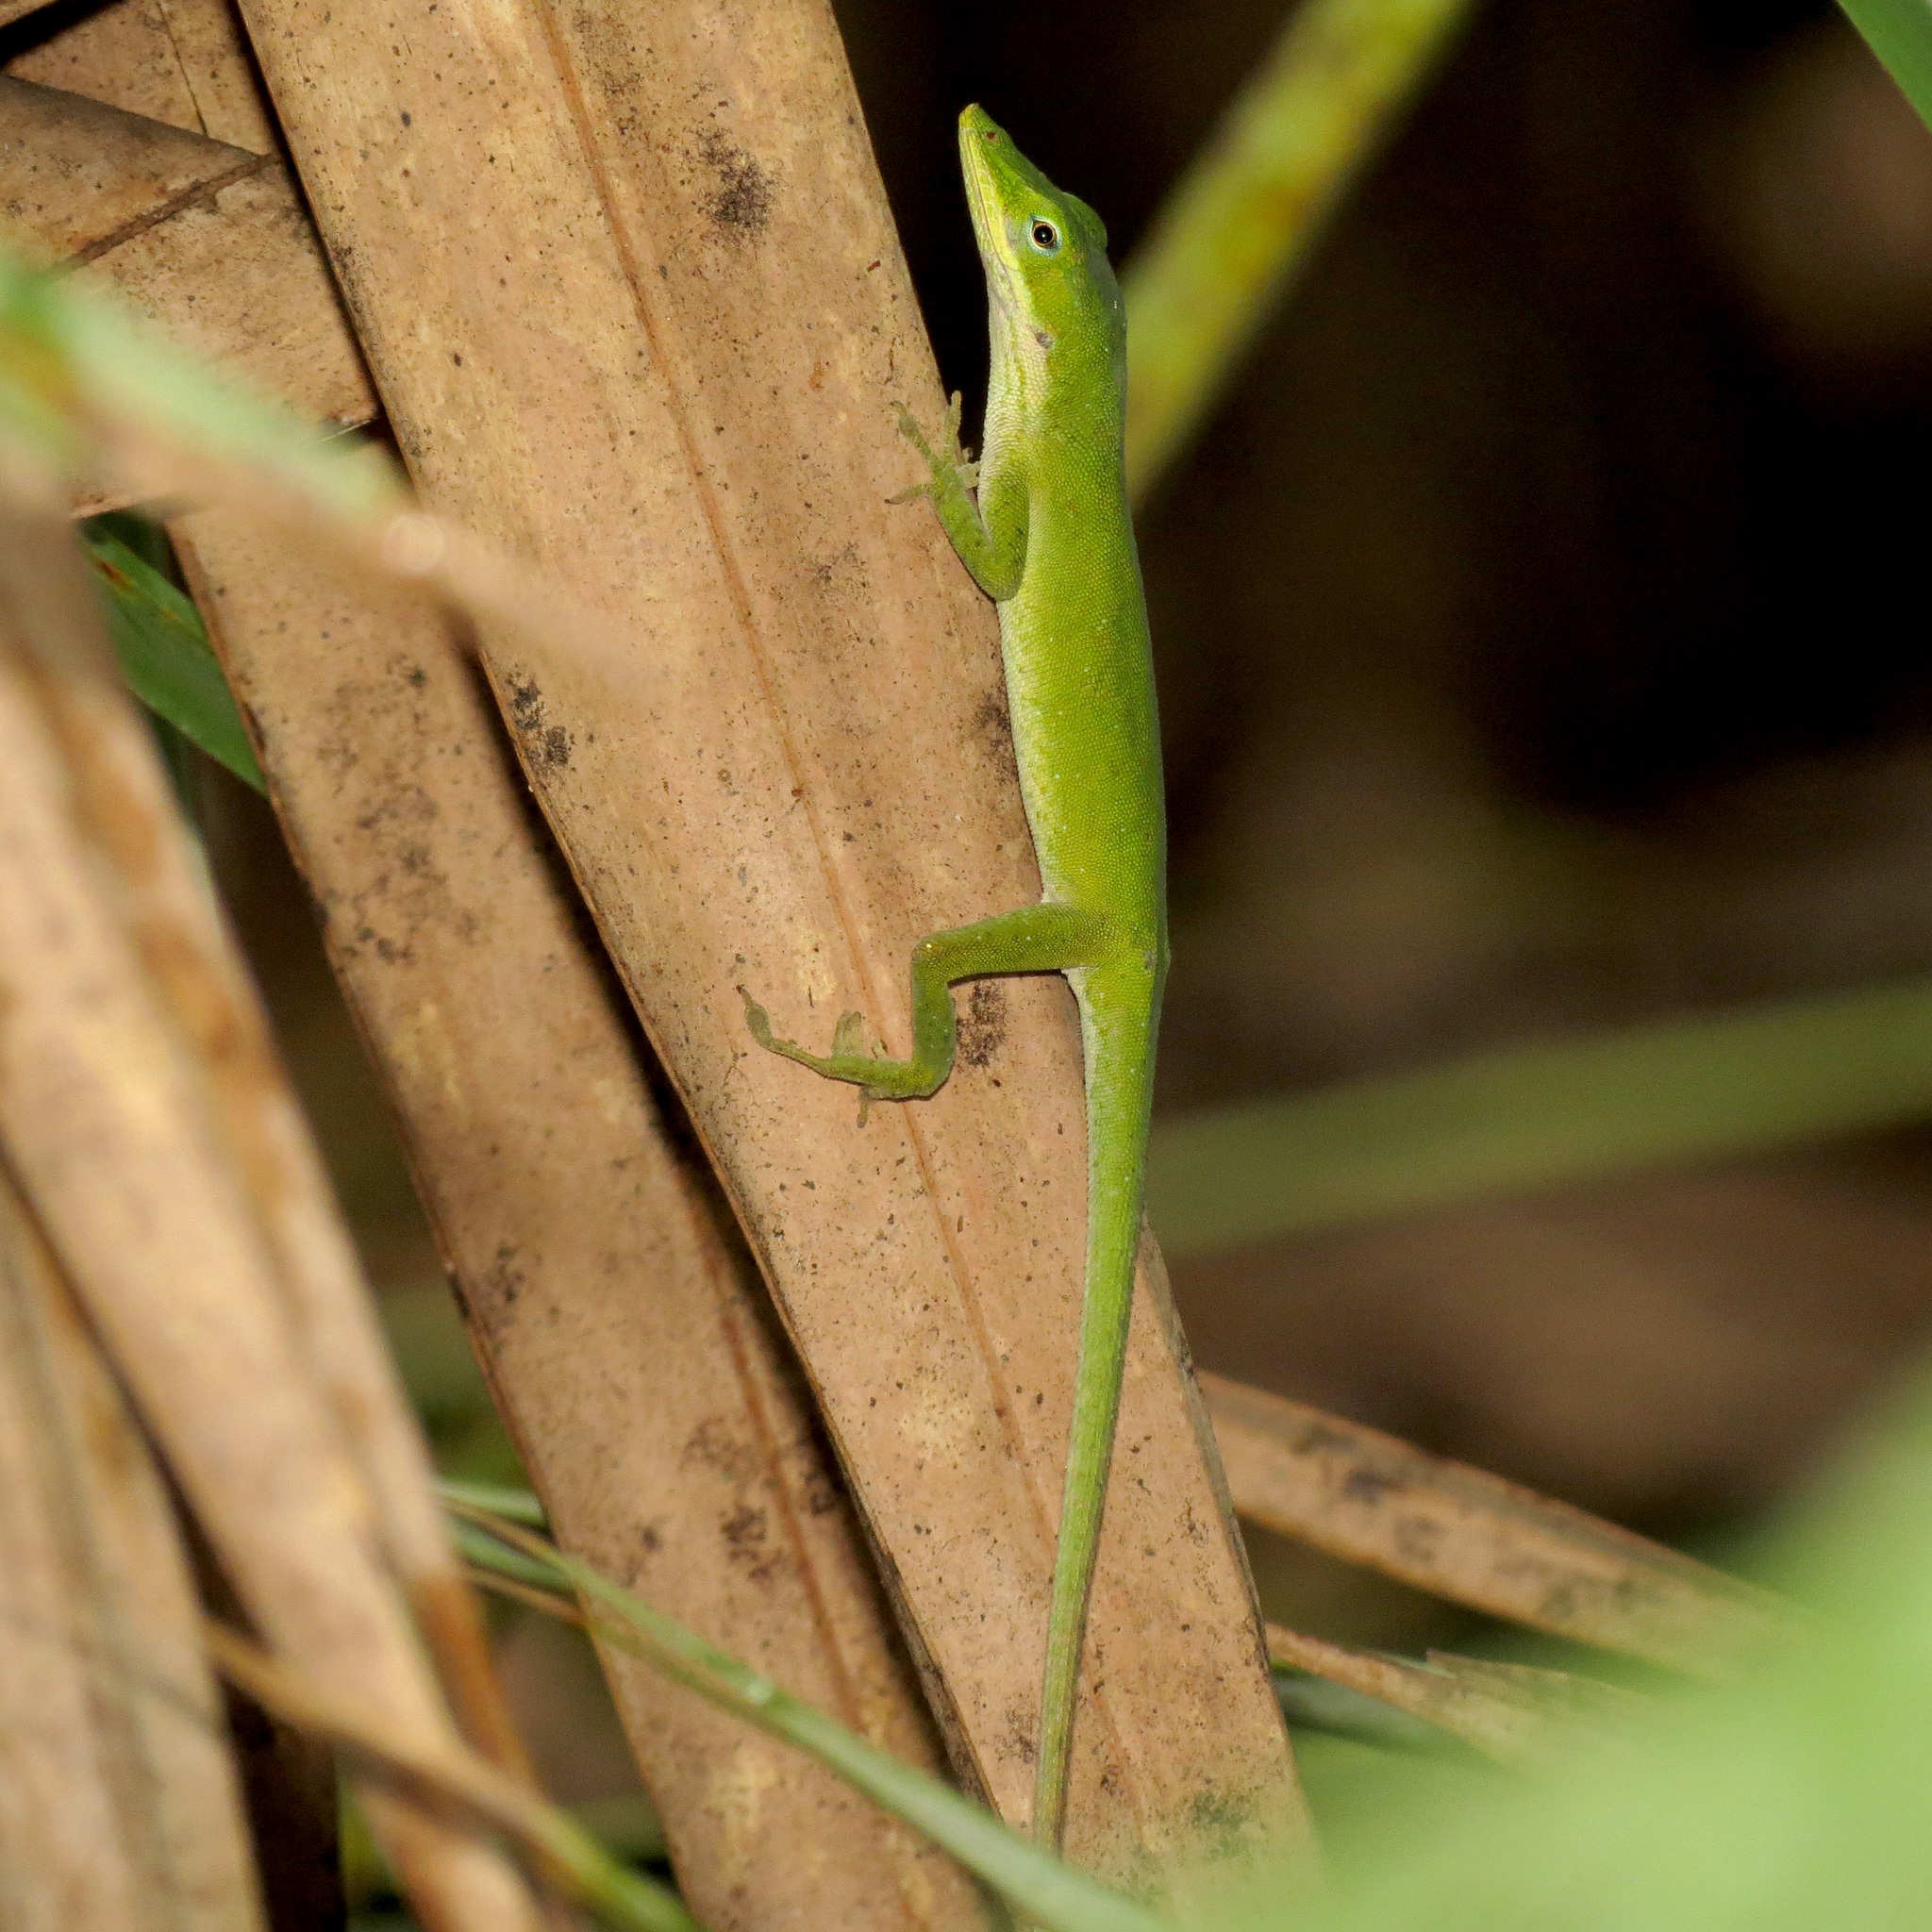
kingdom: Animalia
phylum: Chordata
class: Squamata
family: Dactyloidae
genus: Anolis
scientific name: Anolis carolinensis
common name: Green anole
